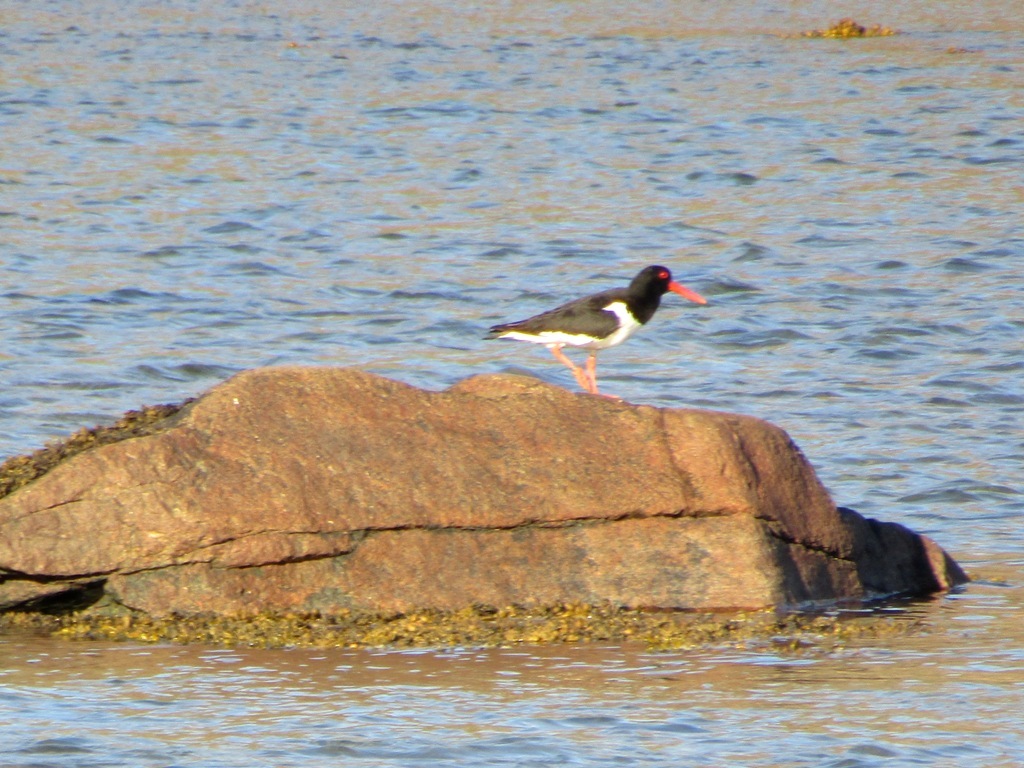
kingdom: Animalia
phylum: Chordata
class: Aves
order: Charadriiformes
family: Haematopodidae
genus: Haematopus
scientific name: Haematopus ostralegus
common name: Eurasian oystercatcher
